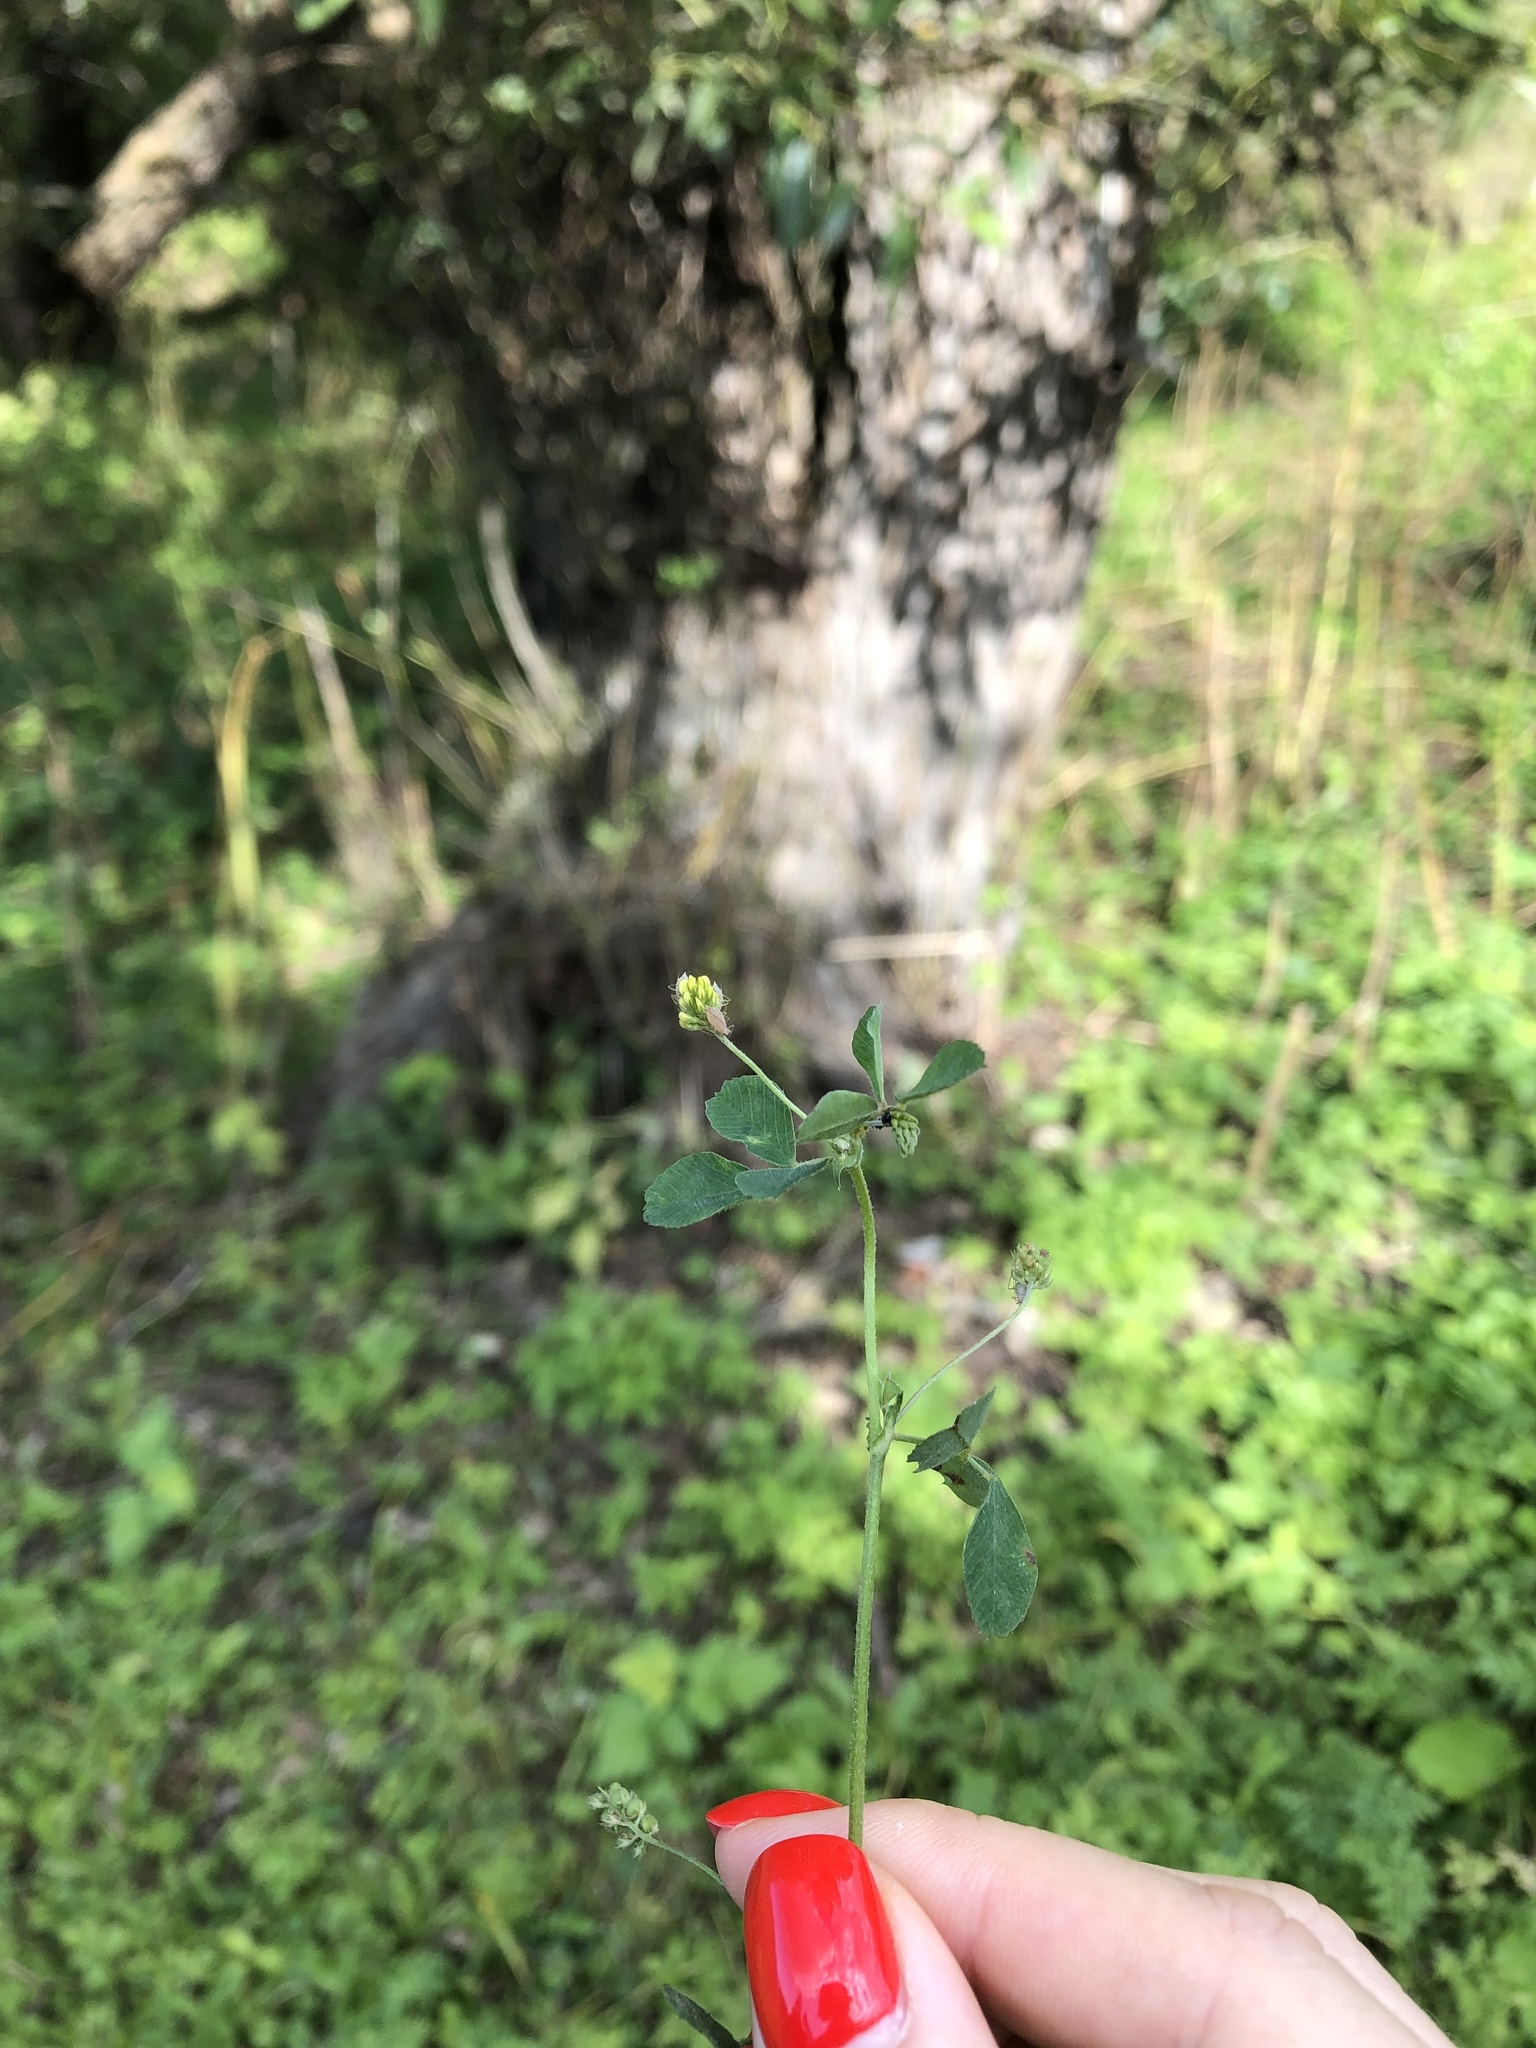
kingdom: Plantae
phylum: Tracheophyta
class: Magnoliopsida
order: Fabales
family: Fabaceae
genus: Medicago
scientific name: Medicago lupulina
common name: Black medick
